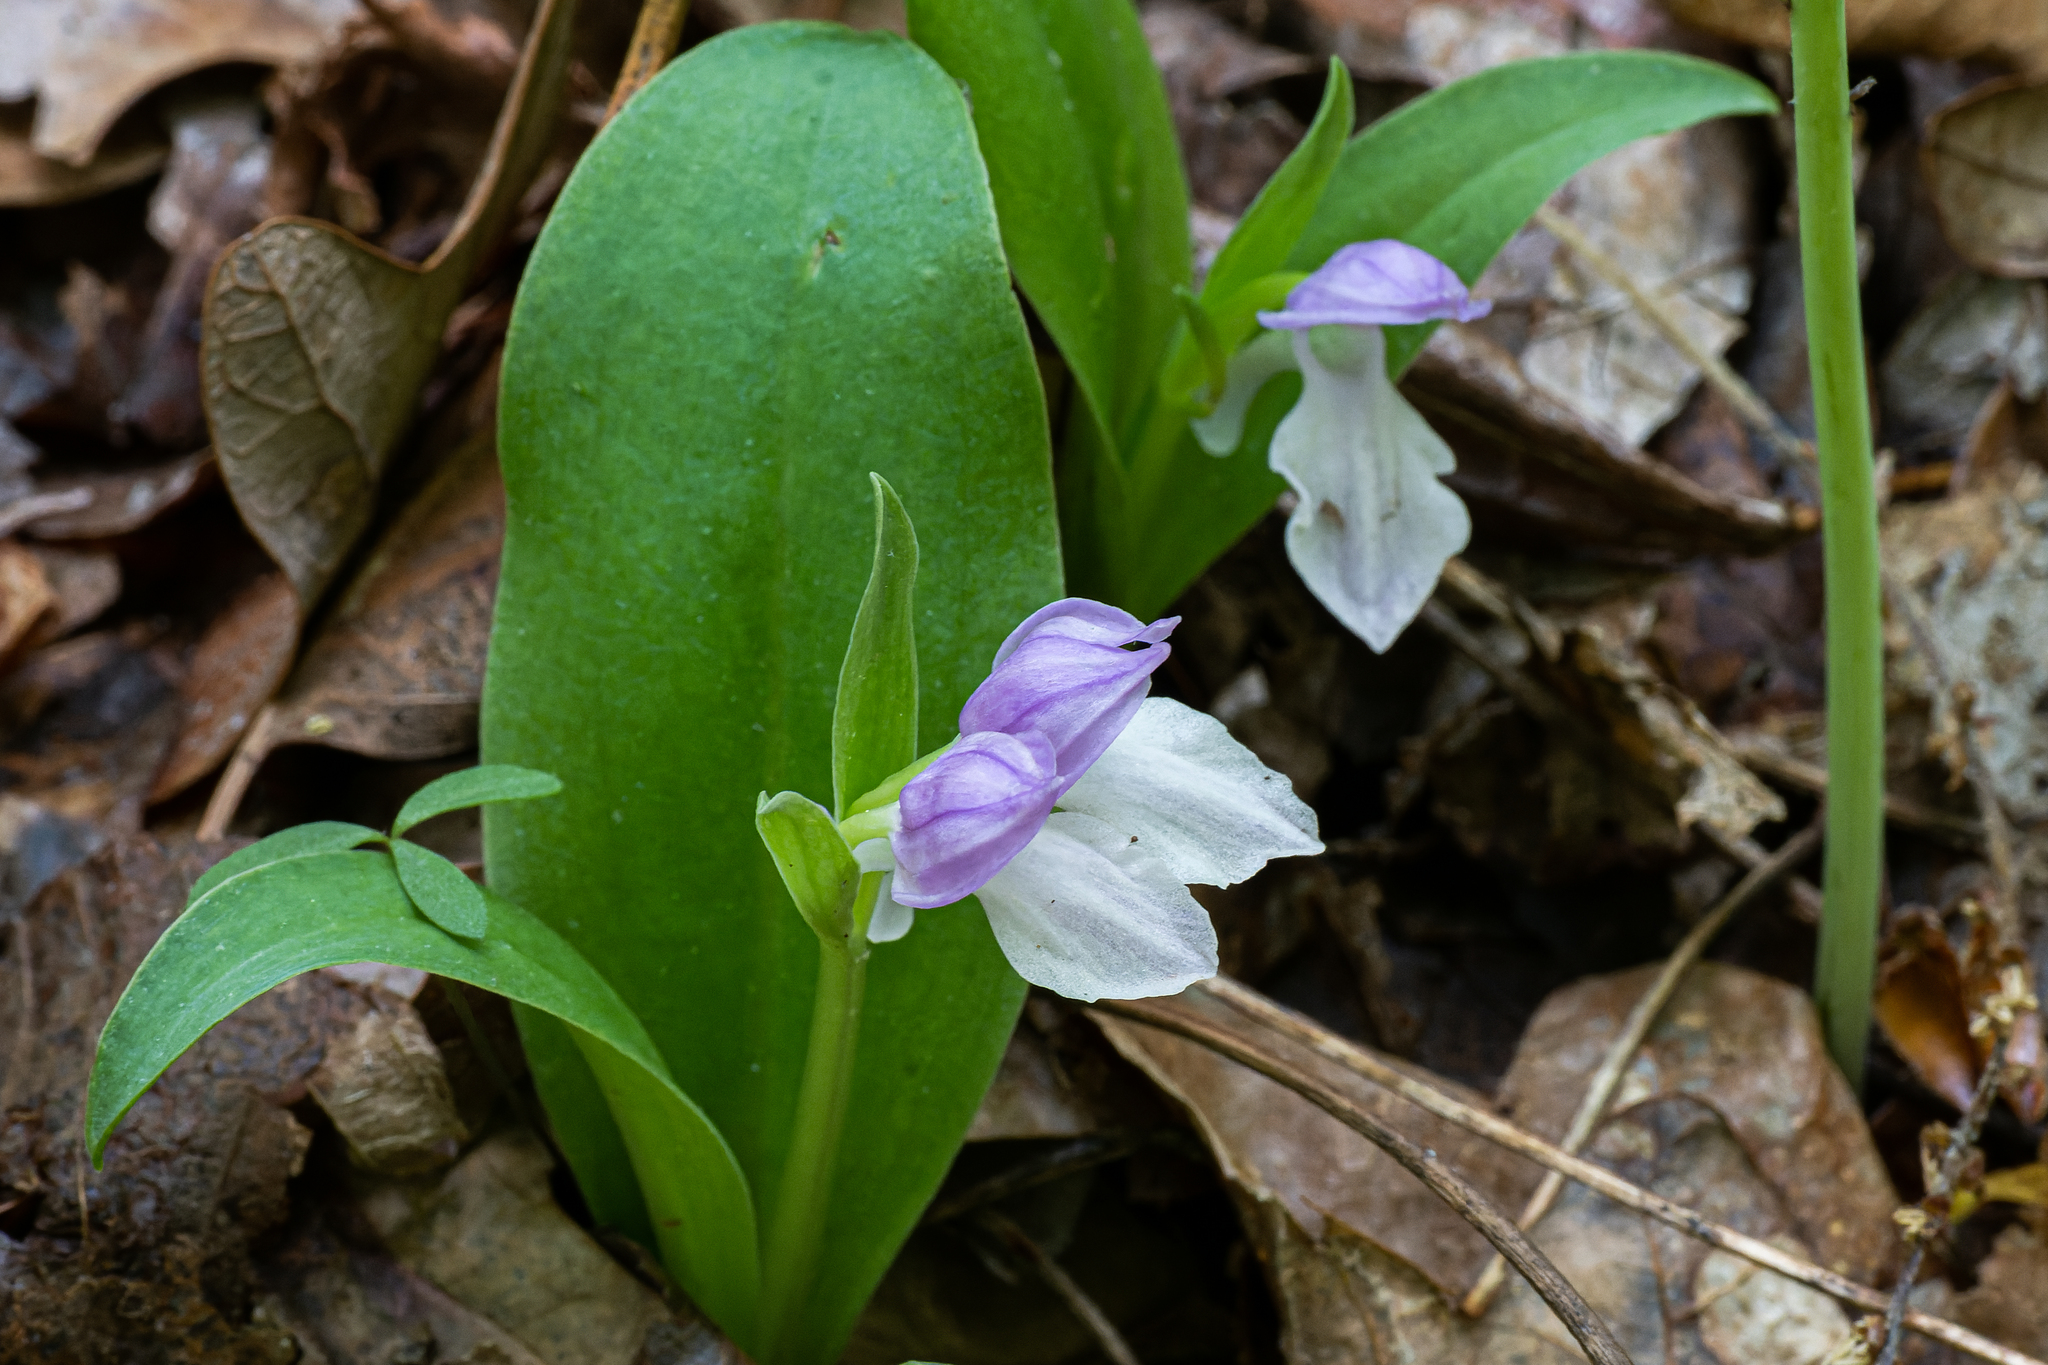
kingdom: Plantae
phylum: Tracheophyta
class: Liliopsida
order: Asparagales
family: Orchidaceae
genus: Galearis
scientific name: Galearis spectabilis
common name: Purple-hooded orchis
